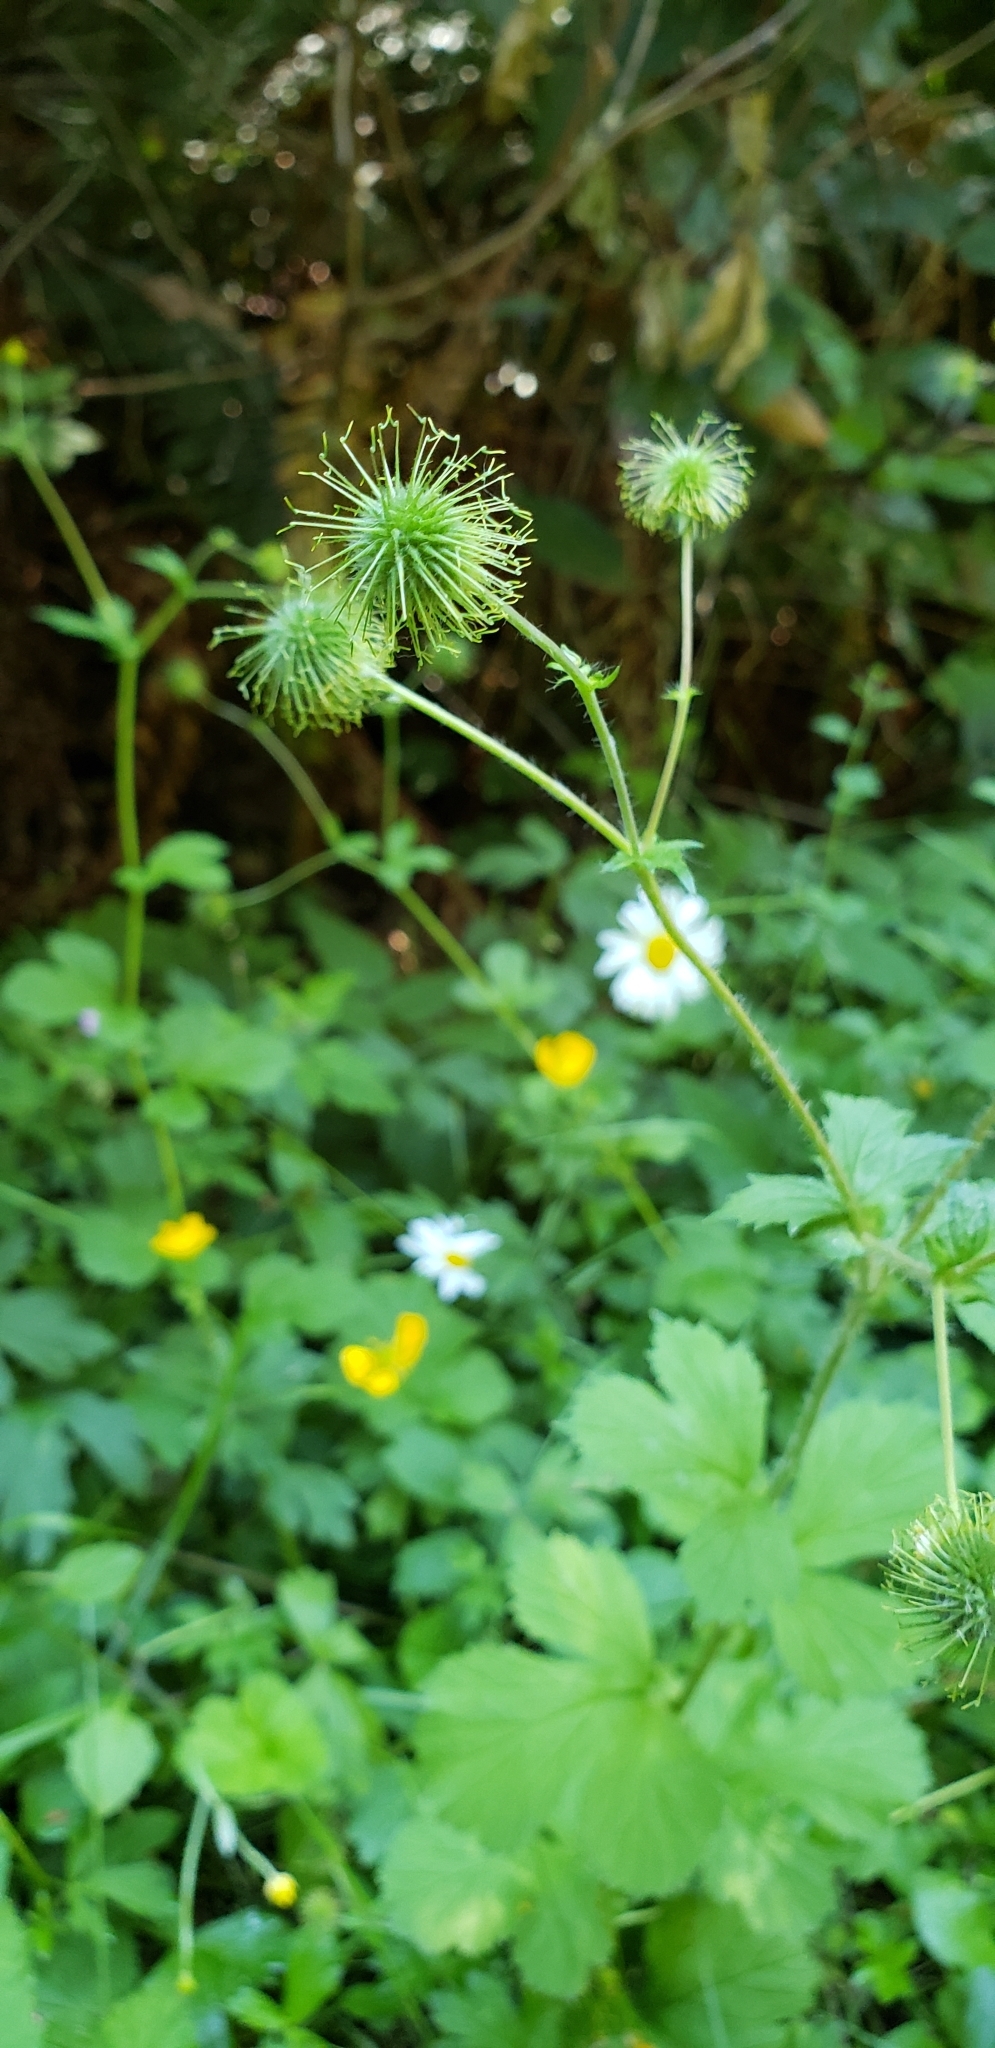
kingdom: Plantae
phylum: Tracheophyta
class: Magnoliopsida
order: Rosales
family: Rosaceae
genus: Geum
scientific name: Geum macrophyllum
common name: Large-leaved avens
